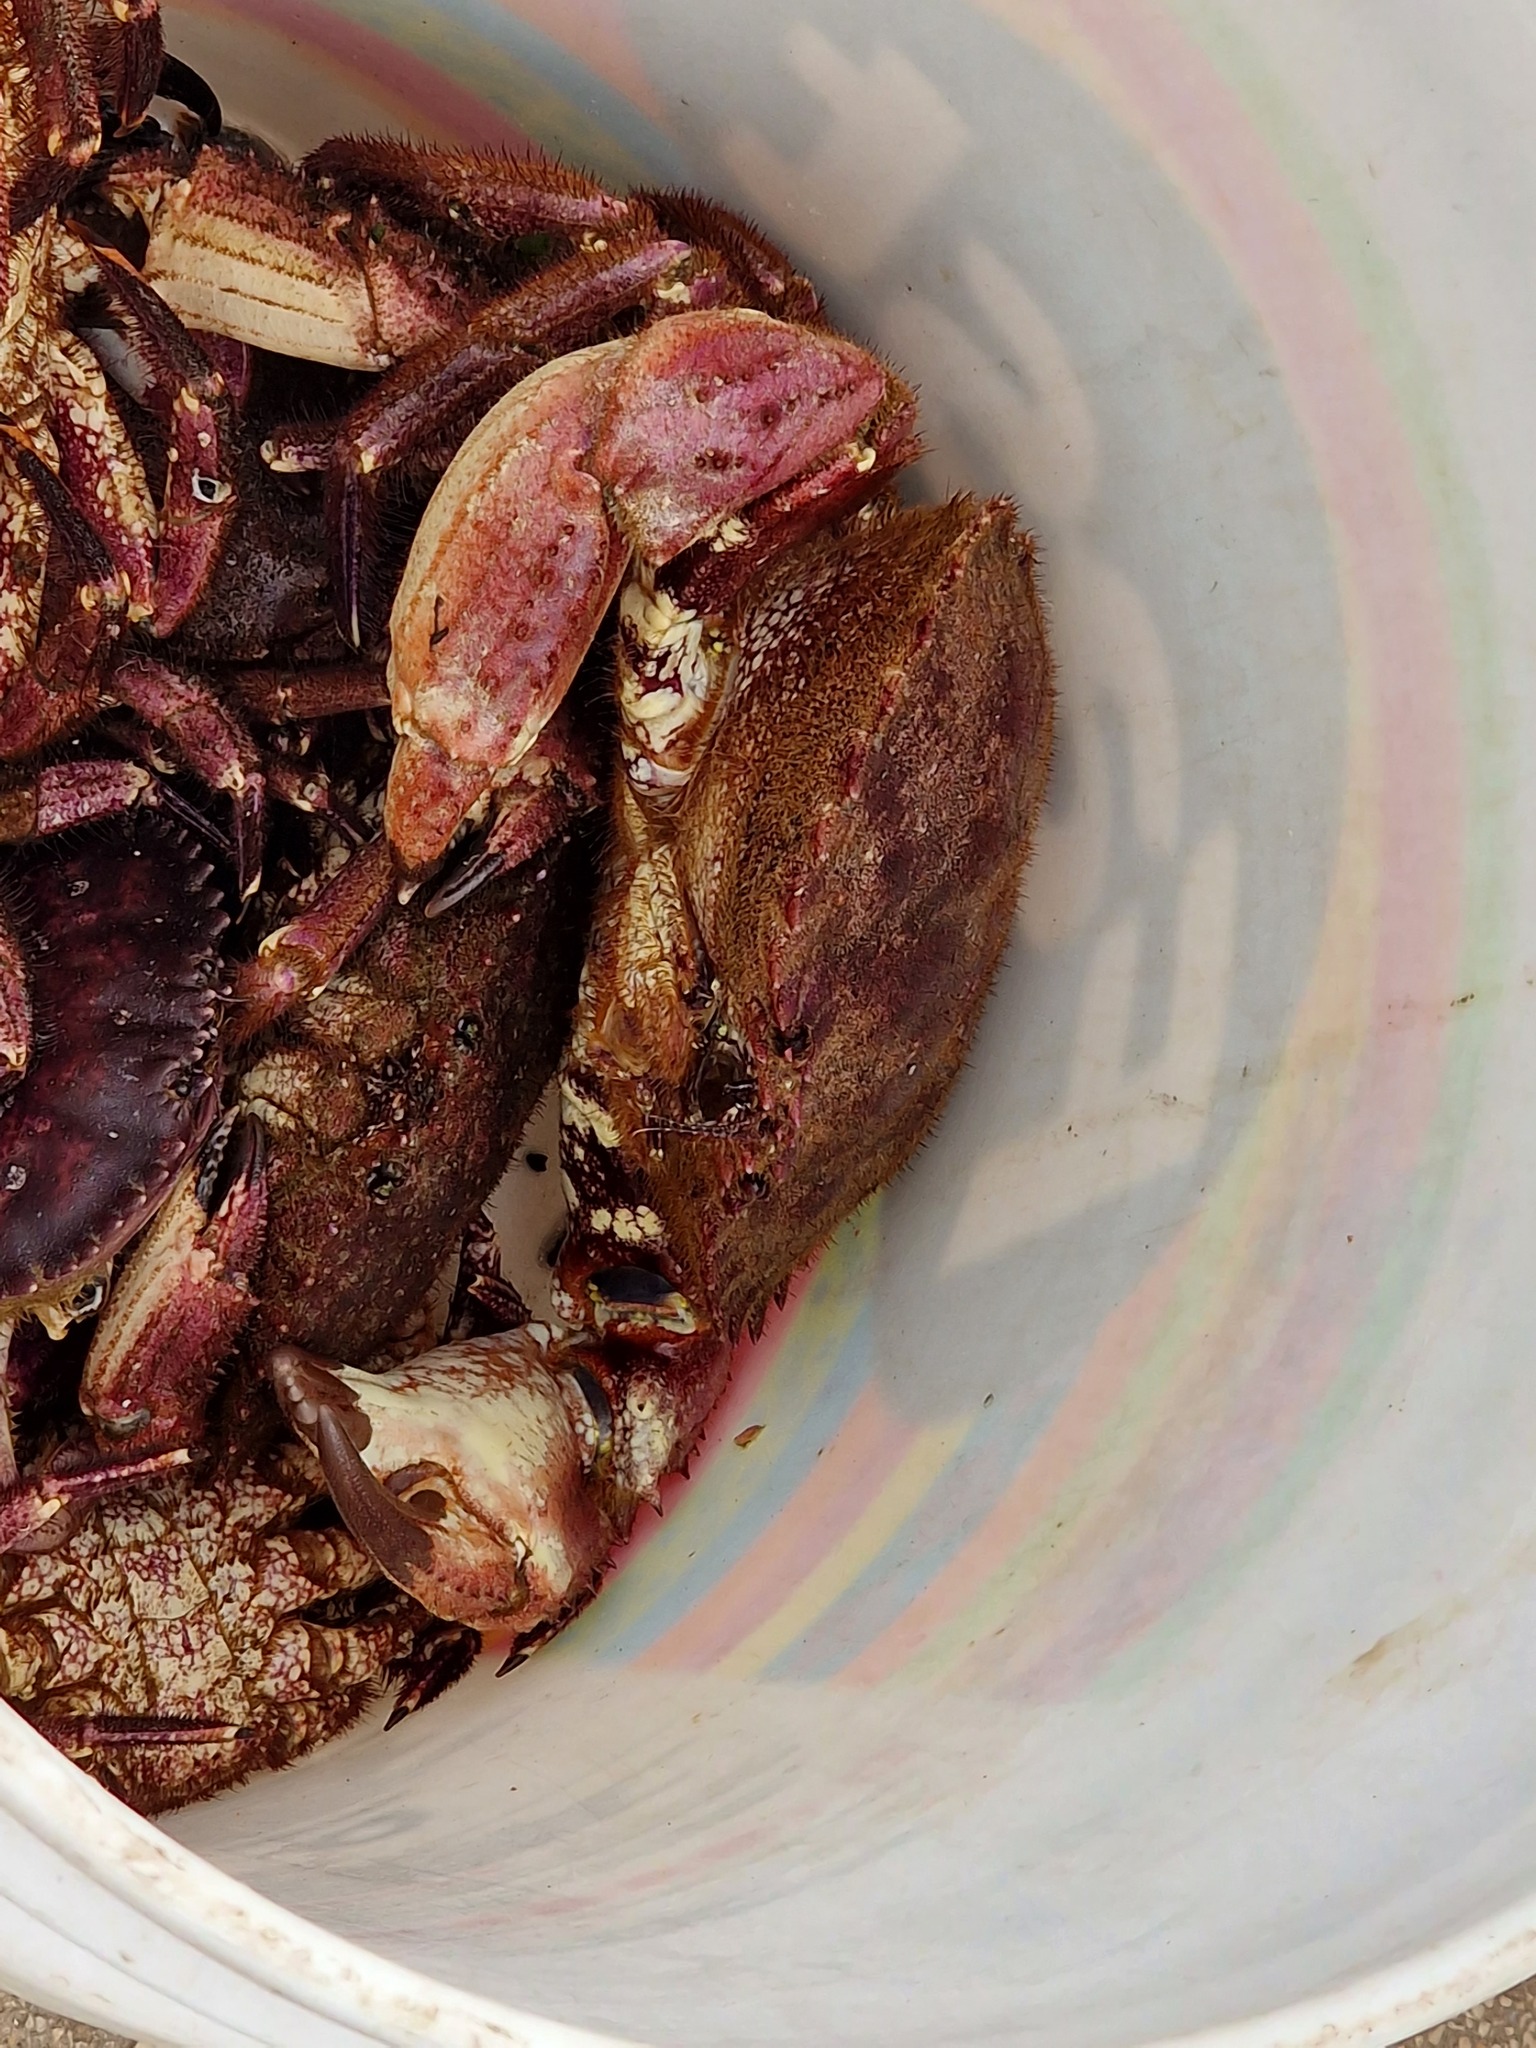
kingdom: Animalia
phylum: Arthropoda
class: Malacostraca
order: Decapoda
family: Cancridae
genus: Romaleon
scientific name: Romaleon setosum
